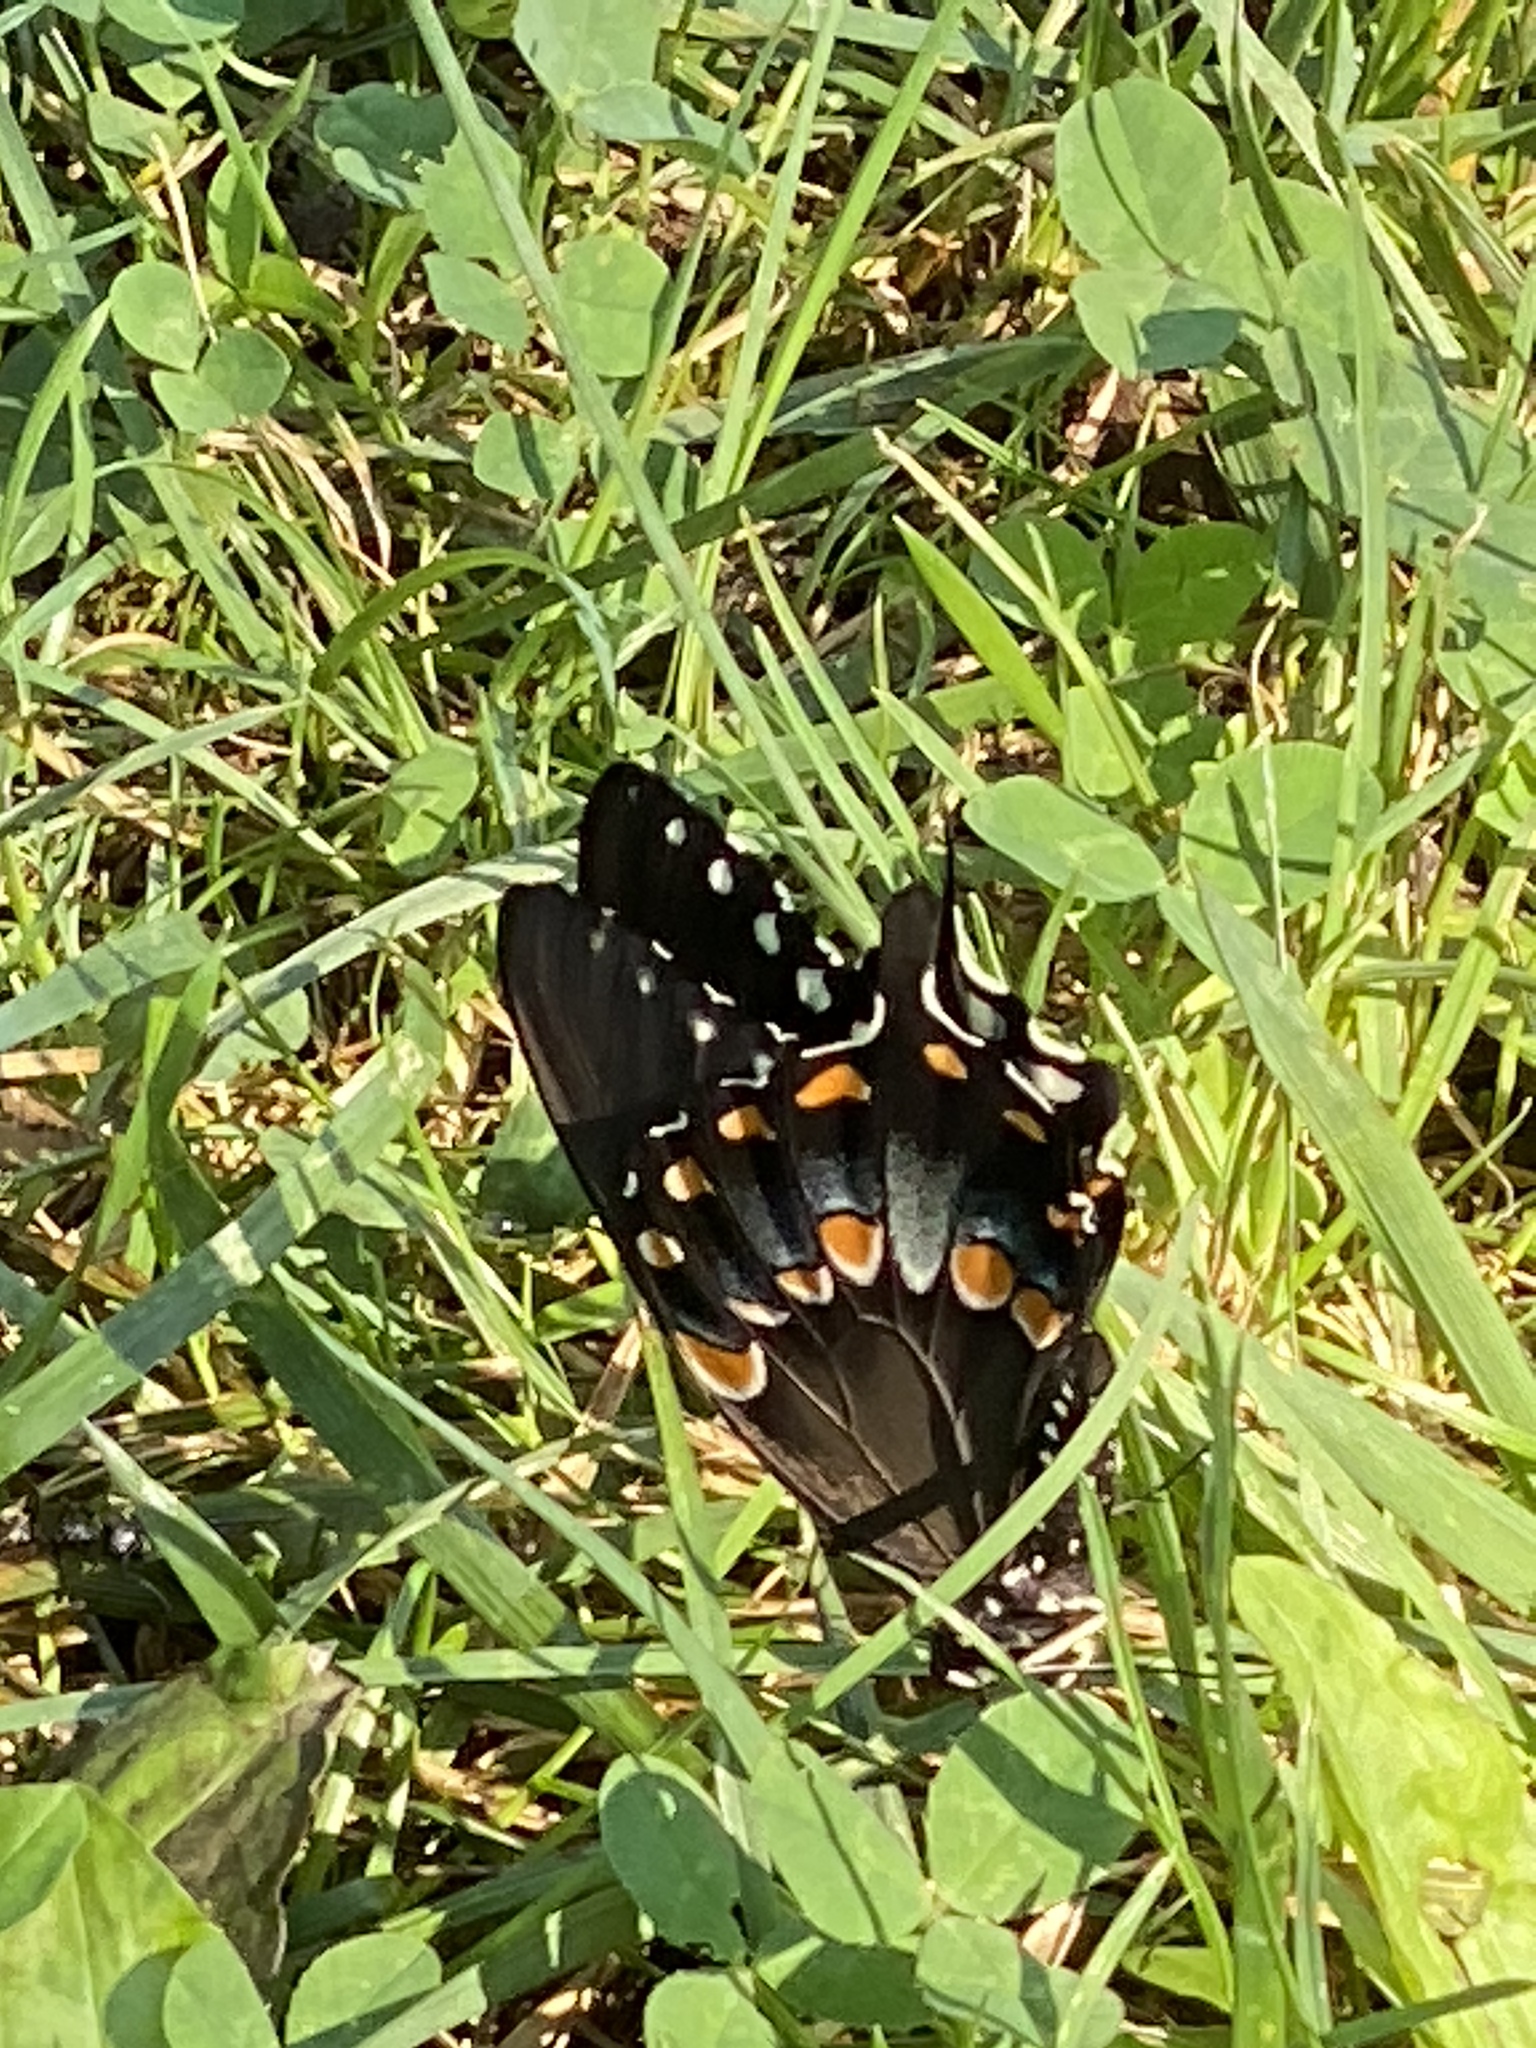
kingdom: Animalia
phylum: Arthropoda
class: Insecta
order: Lepidoptera
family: Papilionidae
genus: Papilio
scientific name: Papilio troilus
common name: Spicebush swallowtail
